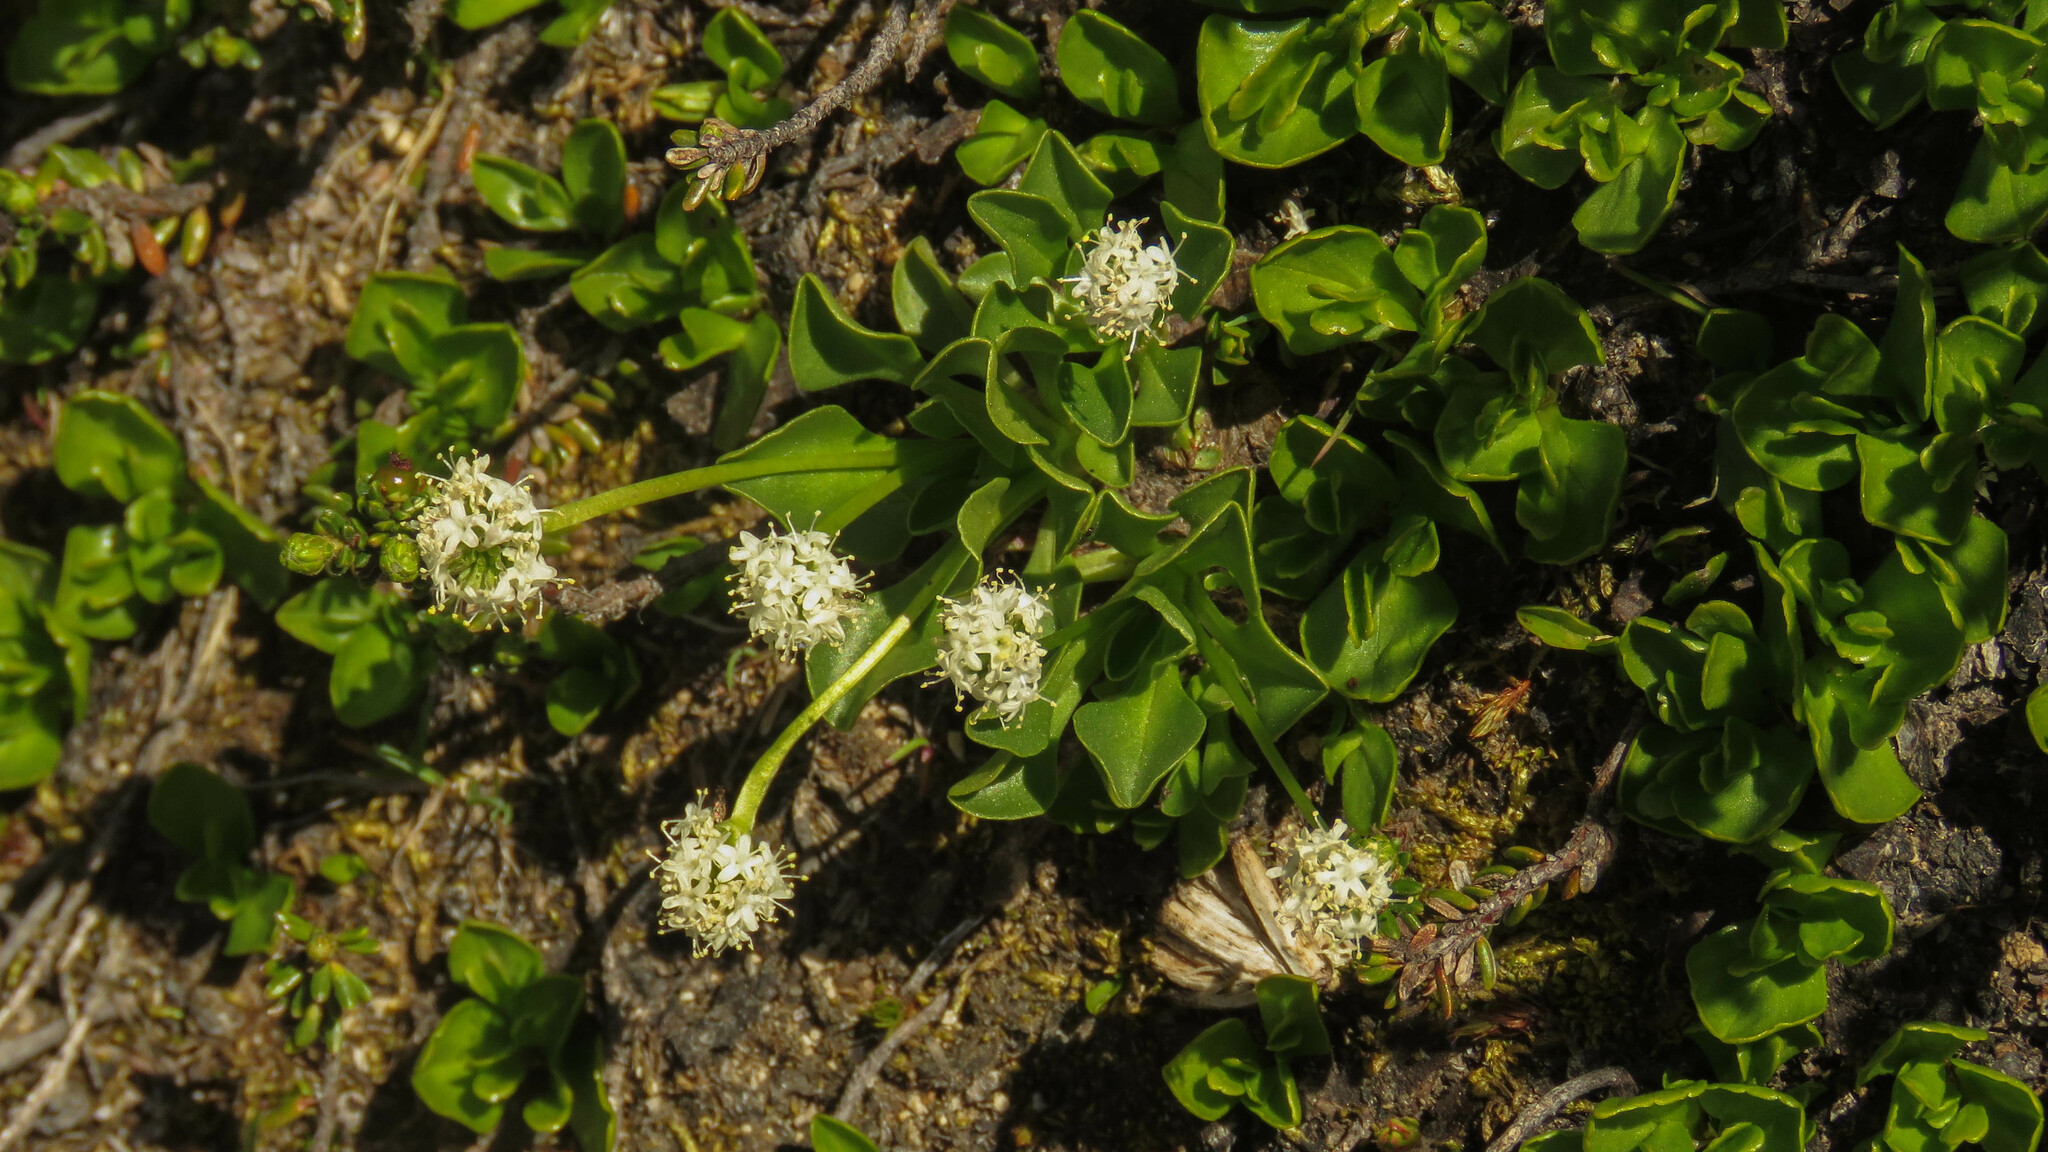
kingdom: Plantae
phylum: Tracheophyta
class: Magnoliopsida
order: Dipsacales
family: Caprifoliaceae
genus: Valeriana
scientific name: Valeriana macrorhiza
